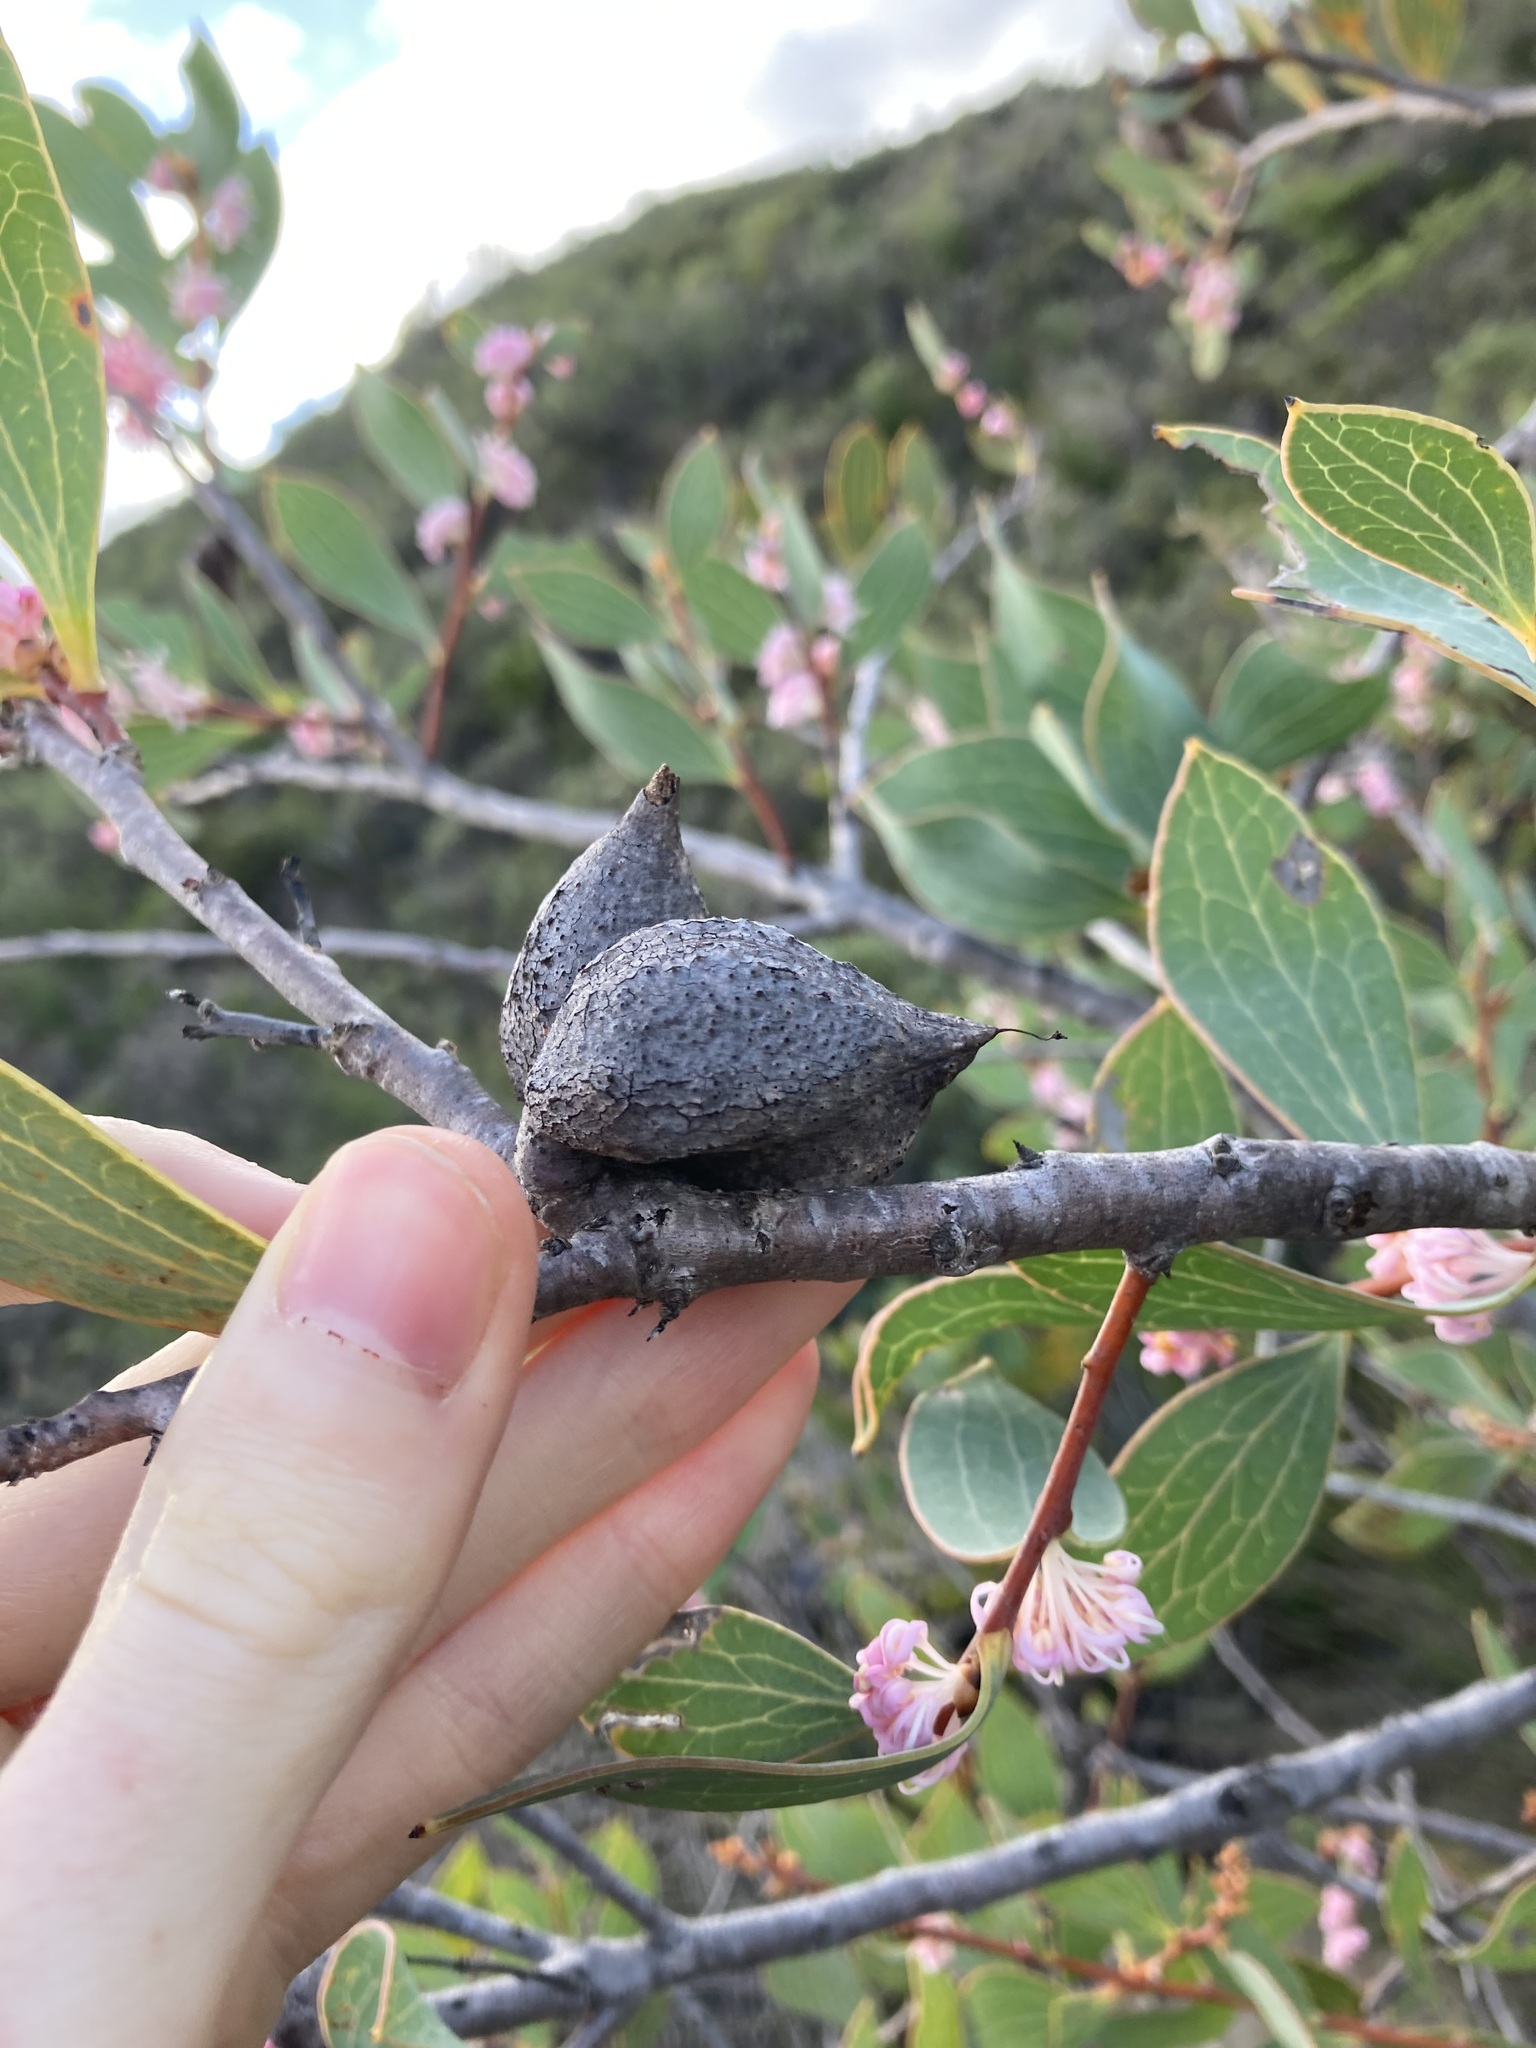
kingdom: Plantae
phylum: Tracheophyta
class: Magnoliopsida
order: Proteales
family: Proteaceae
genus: Hakea
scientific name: Hakea neurophylla
